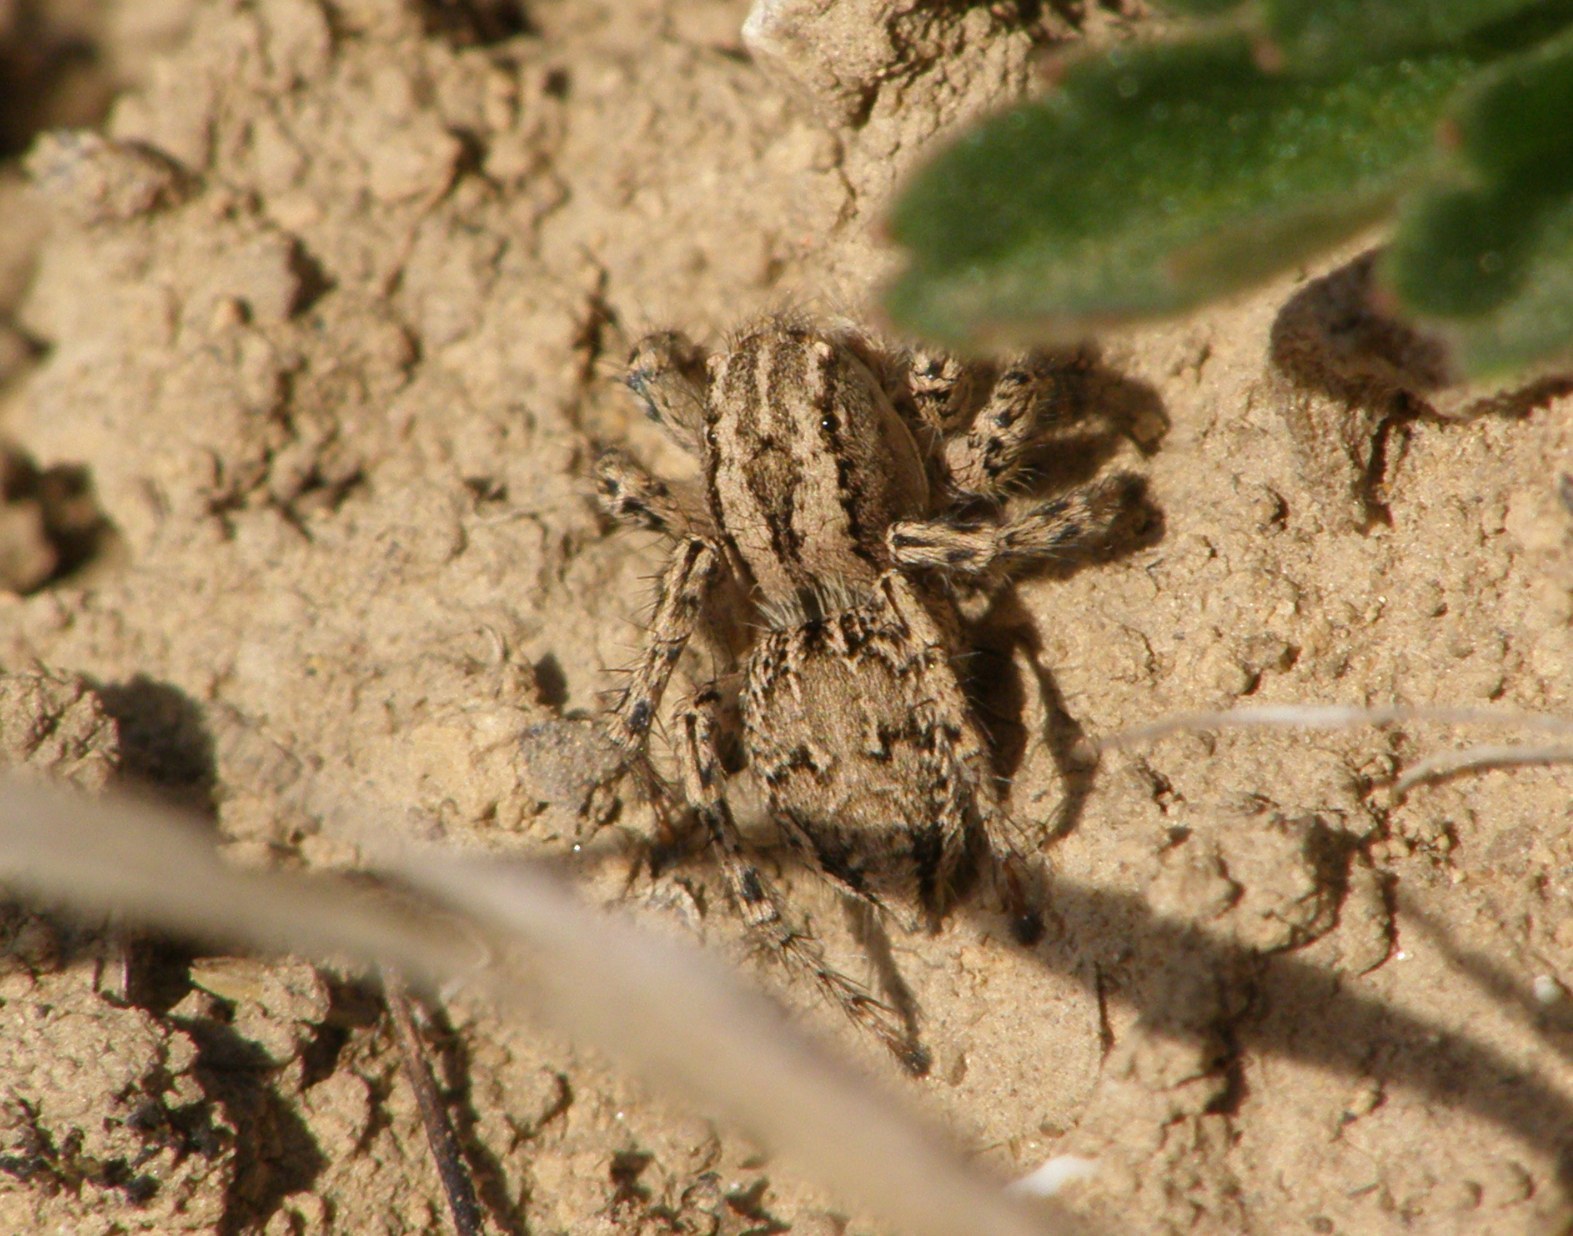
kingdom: Animalia
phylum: Arthropoda
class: Arachnida
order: Araneae
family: Salticidae
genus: Aelurillus
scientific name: Aelurillus m-nigrum
